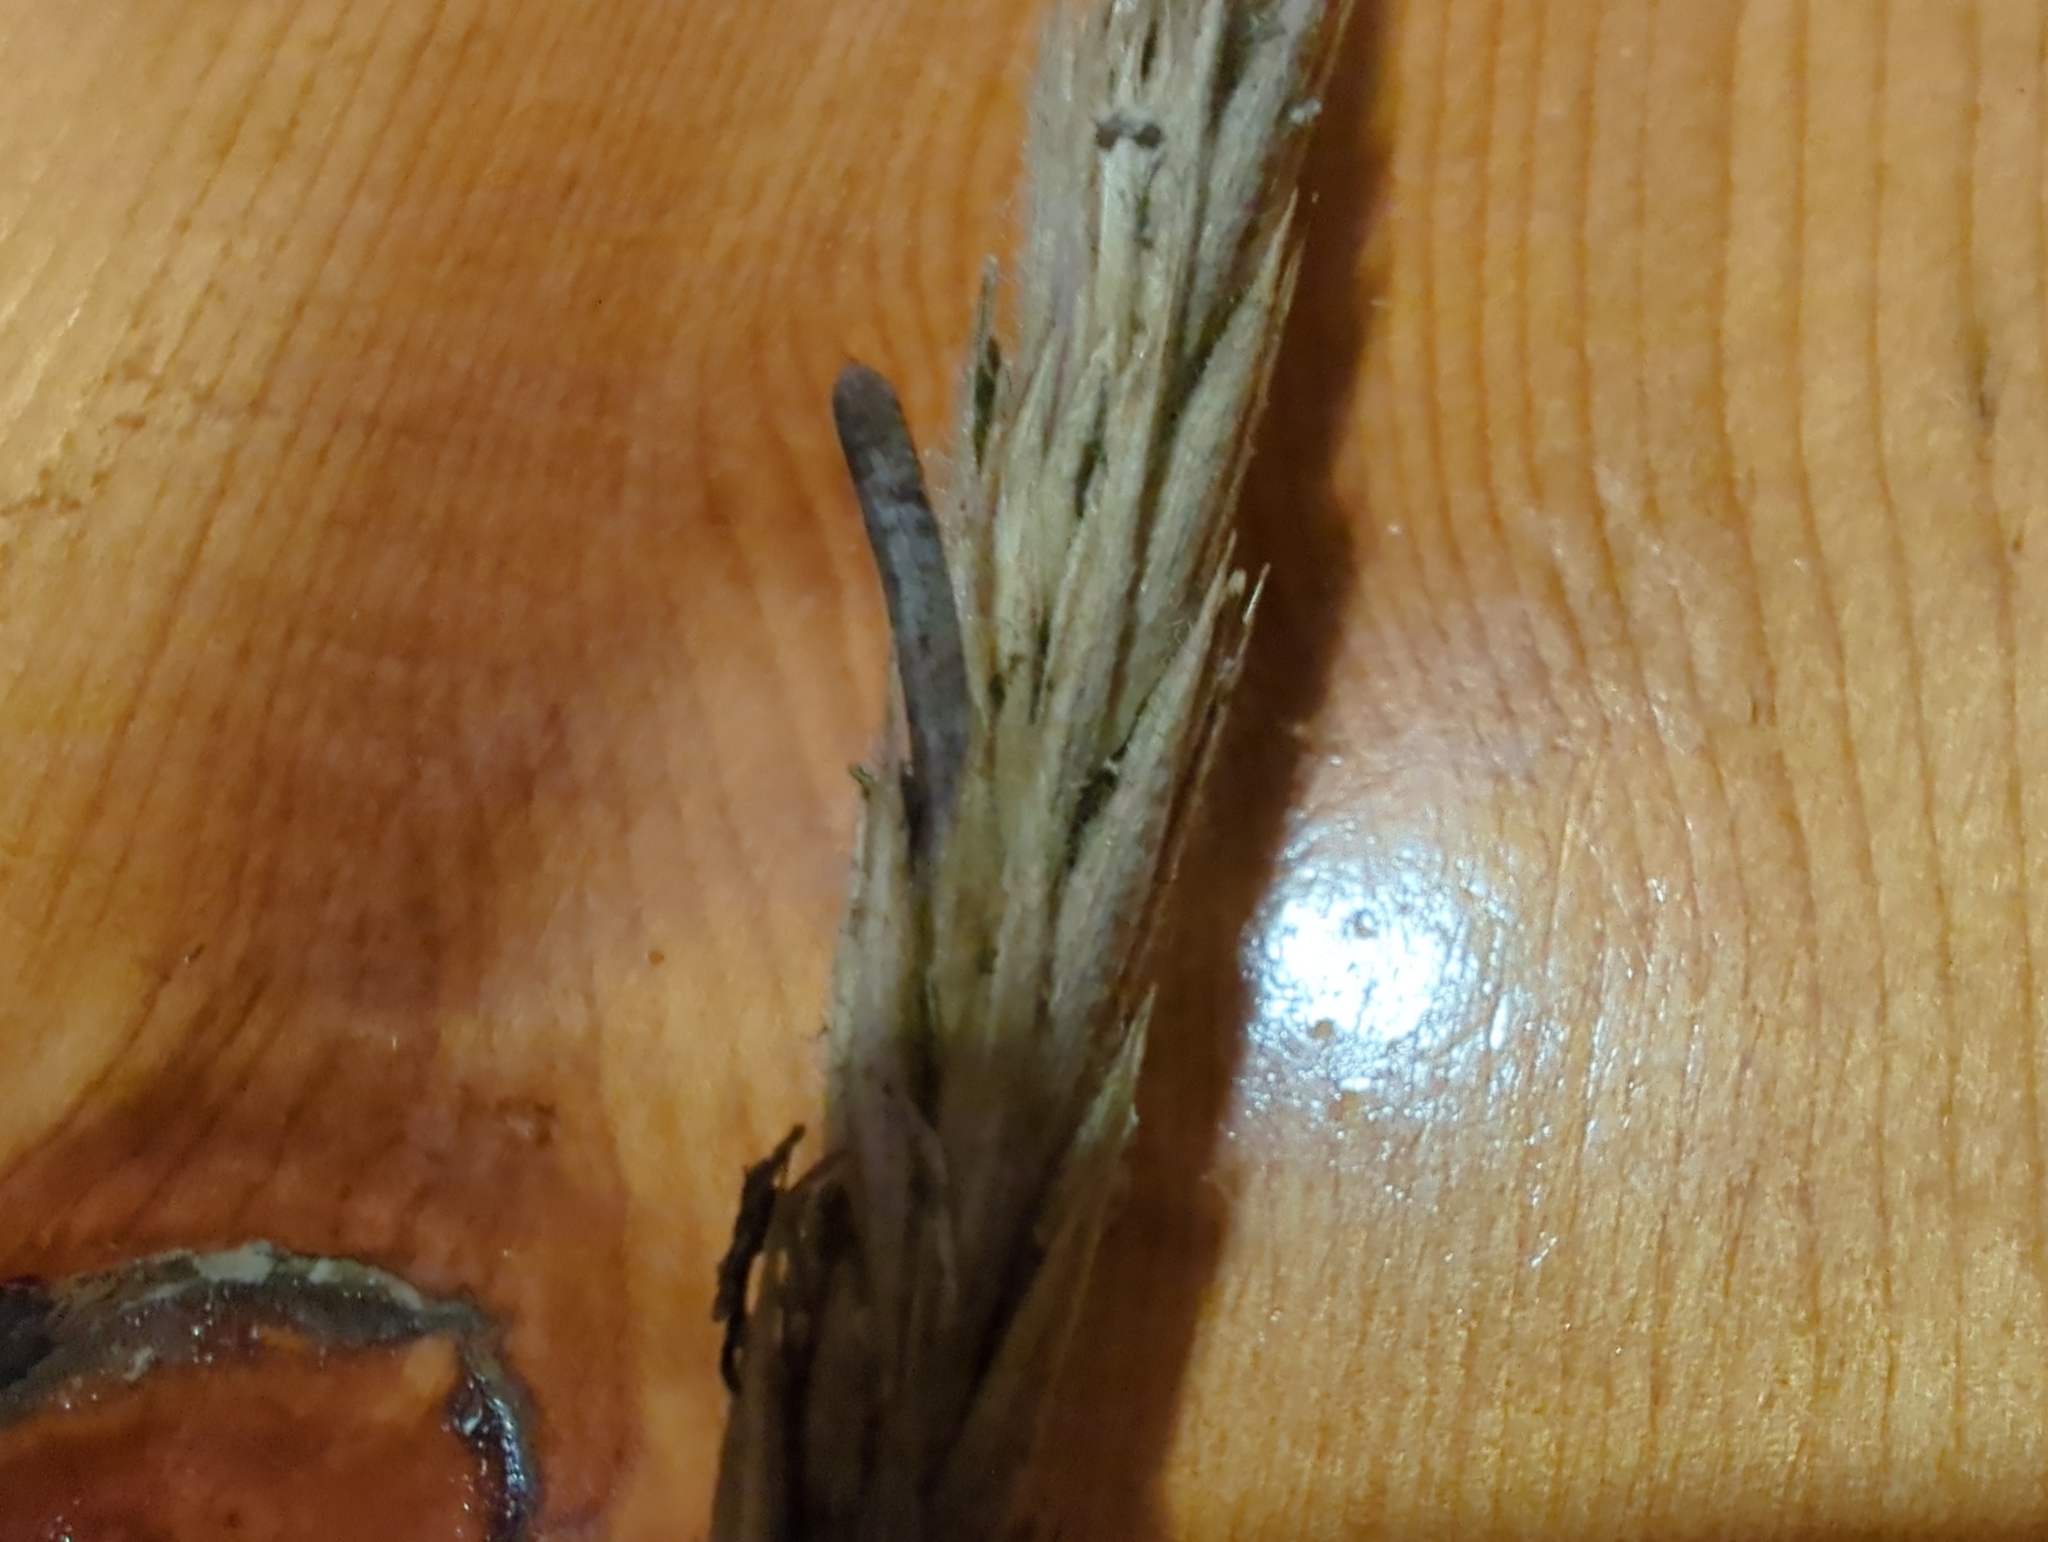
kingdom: Fungi
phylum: Ascomycota
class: Sordariomycetes
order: Hypocreales
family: Clavicipitaceae
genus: Claviceps
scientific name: Claviceps purpurea
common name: Rye ergot
